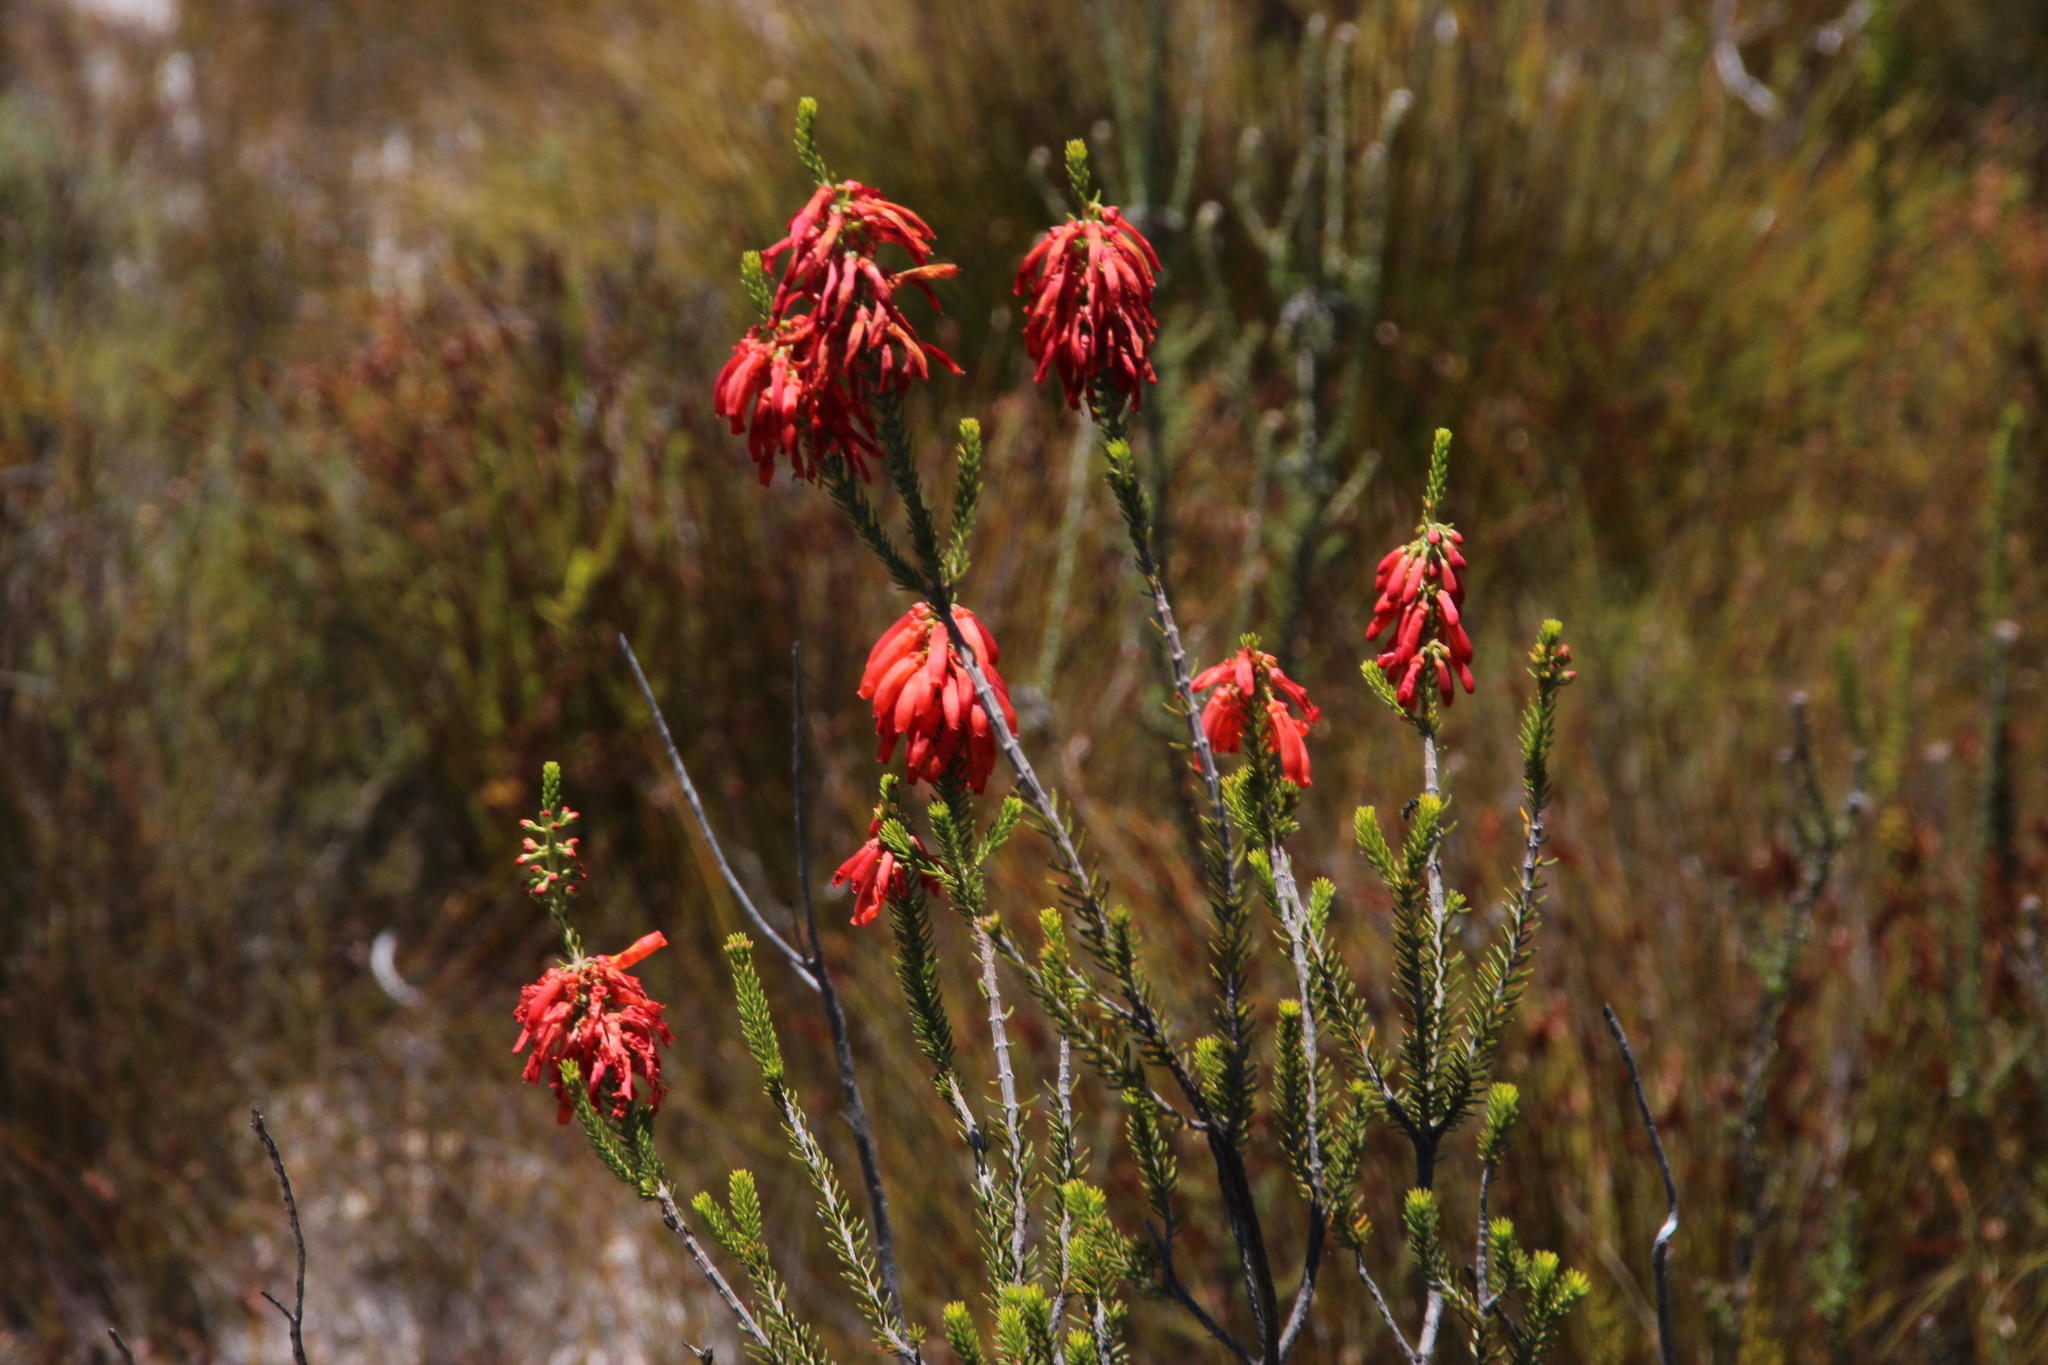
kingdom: Plantae
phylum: Tracheophyta
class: Magnoliopsida
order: Ericales
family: Ericaceae
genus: Erica
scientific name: Erica mammosa
